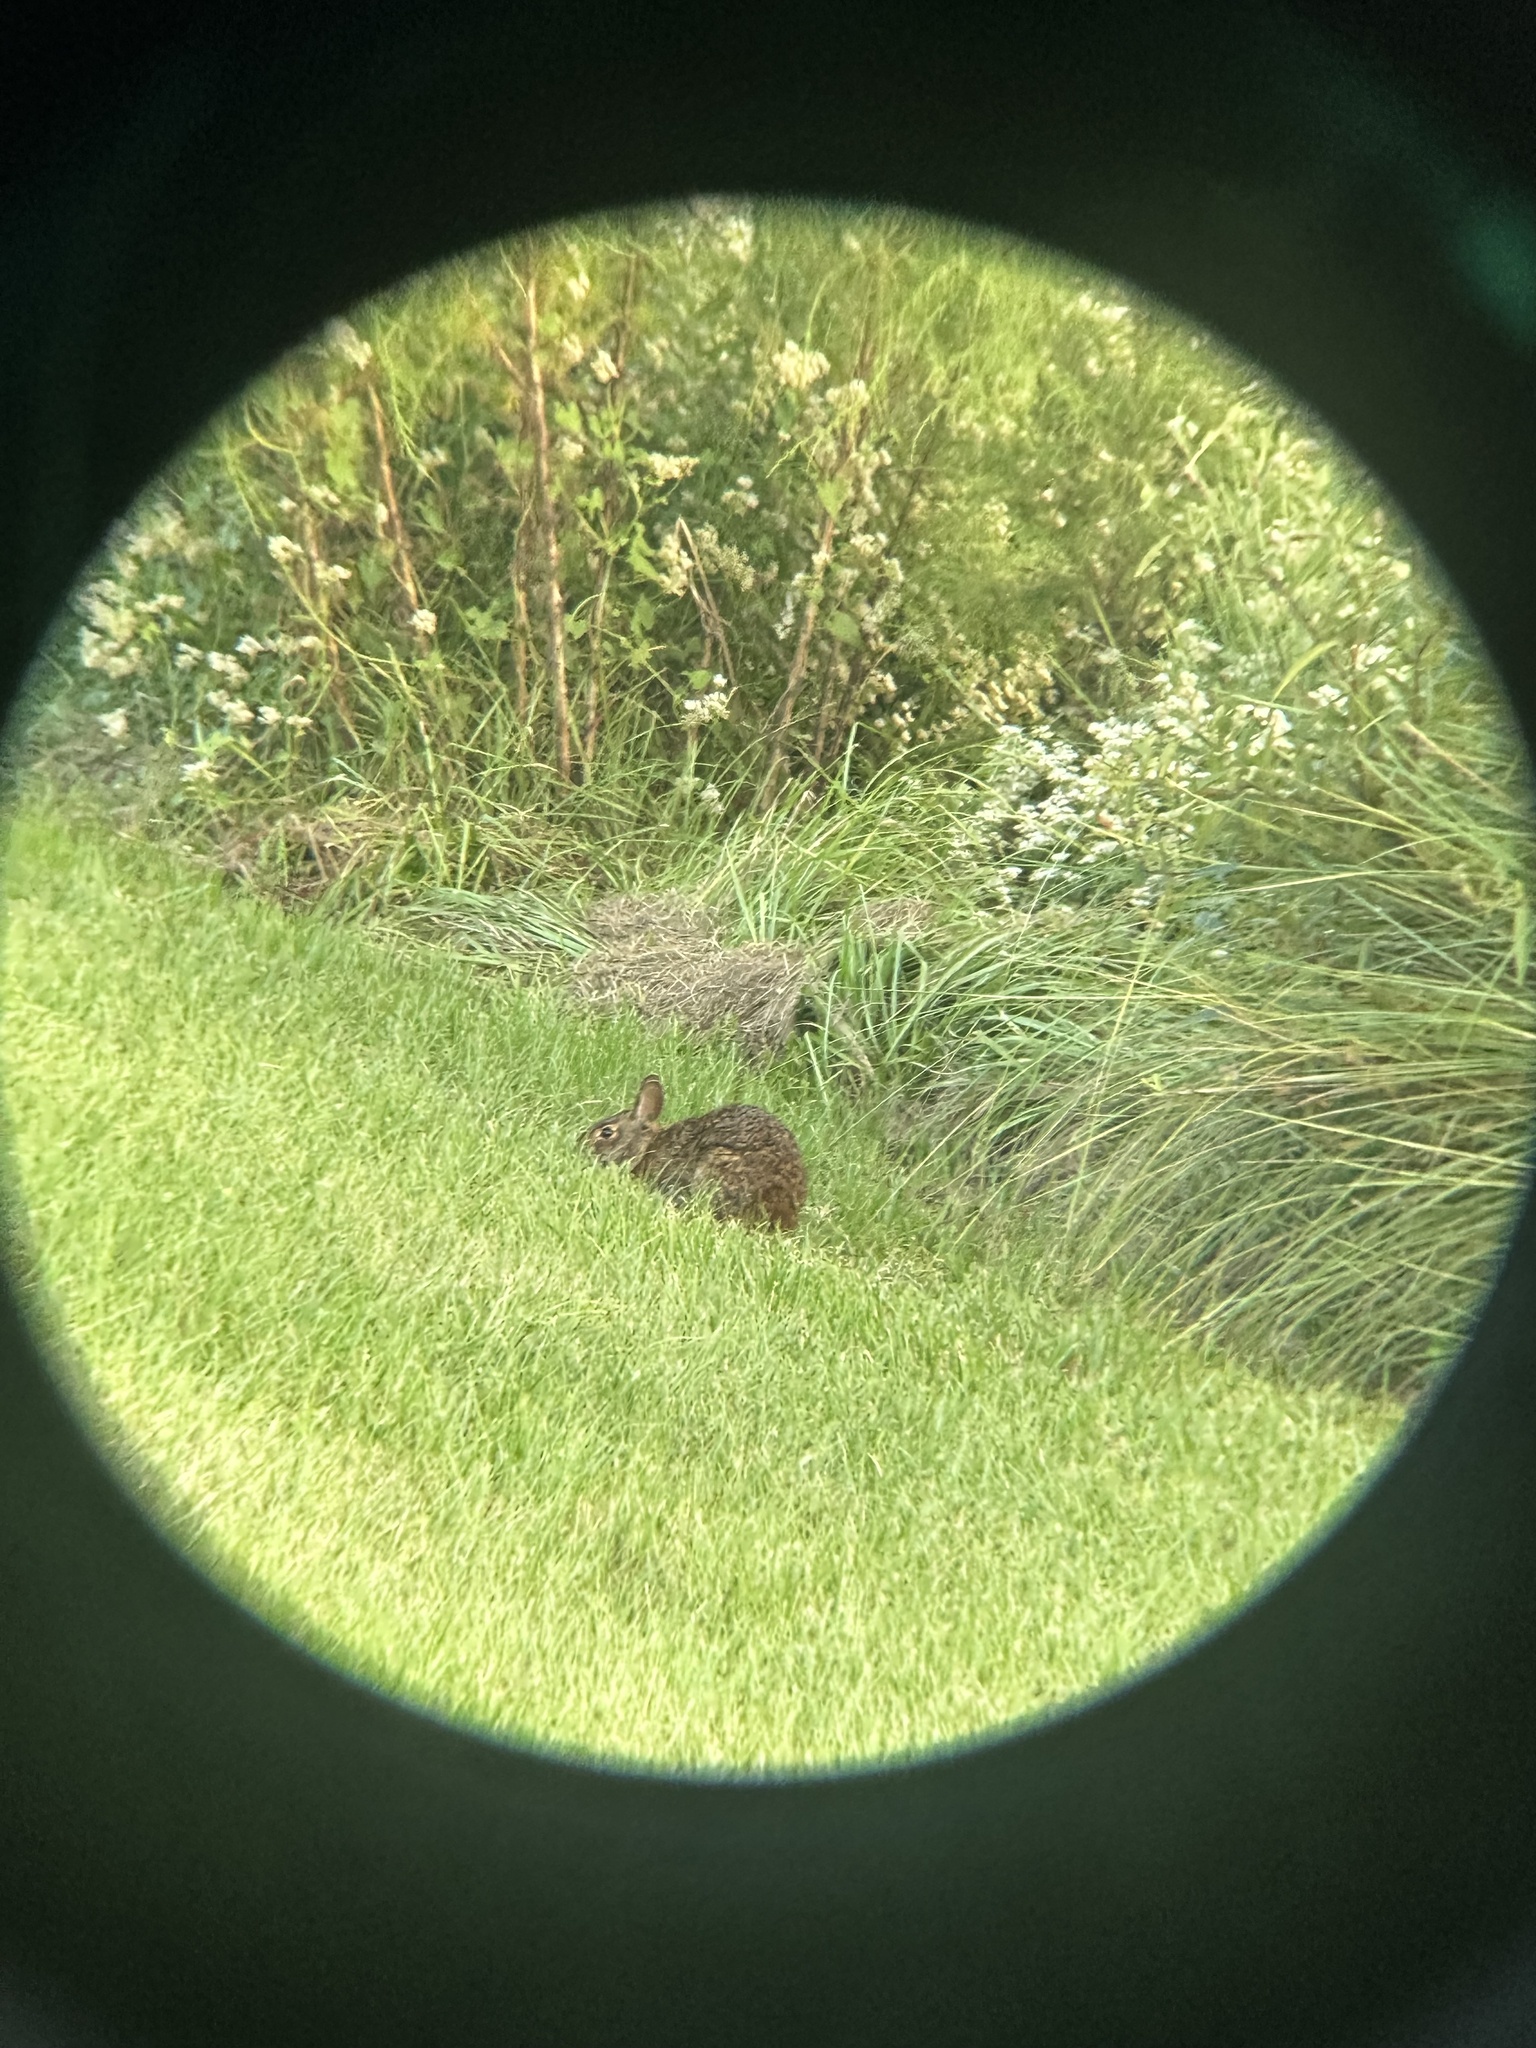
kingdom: Animalia
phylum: Chordata
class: Mammalia
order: Lagomorpha
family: Leporidae
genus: Sylvilagus
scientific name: Sylvilagus palustris
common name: Marsh rabbit
